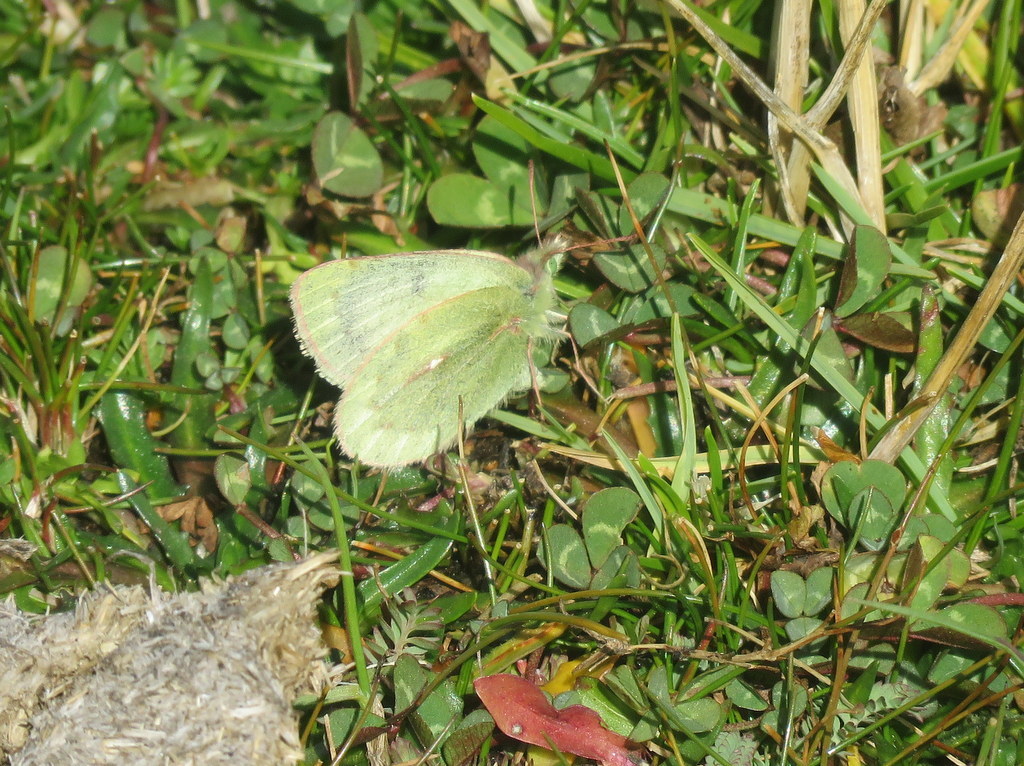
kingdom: Animalia
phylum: Arthropoda
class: Insecta
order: Lepidoptera
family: Pieridae
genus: Colias
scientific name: Colias flaveola
